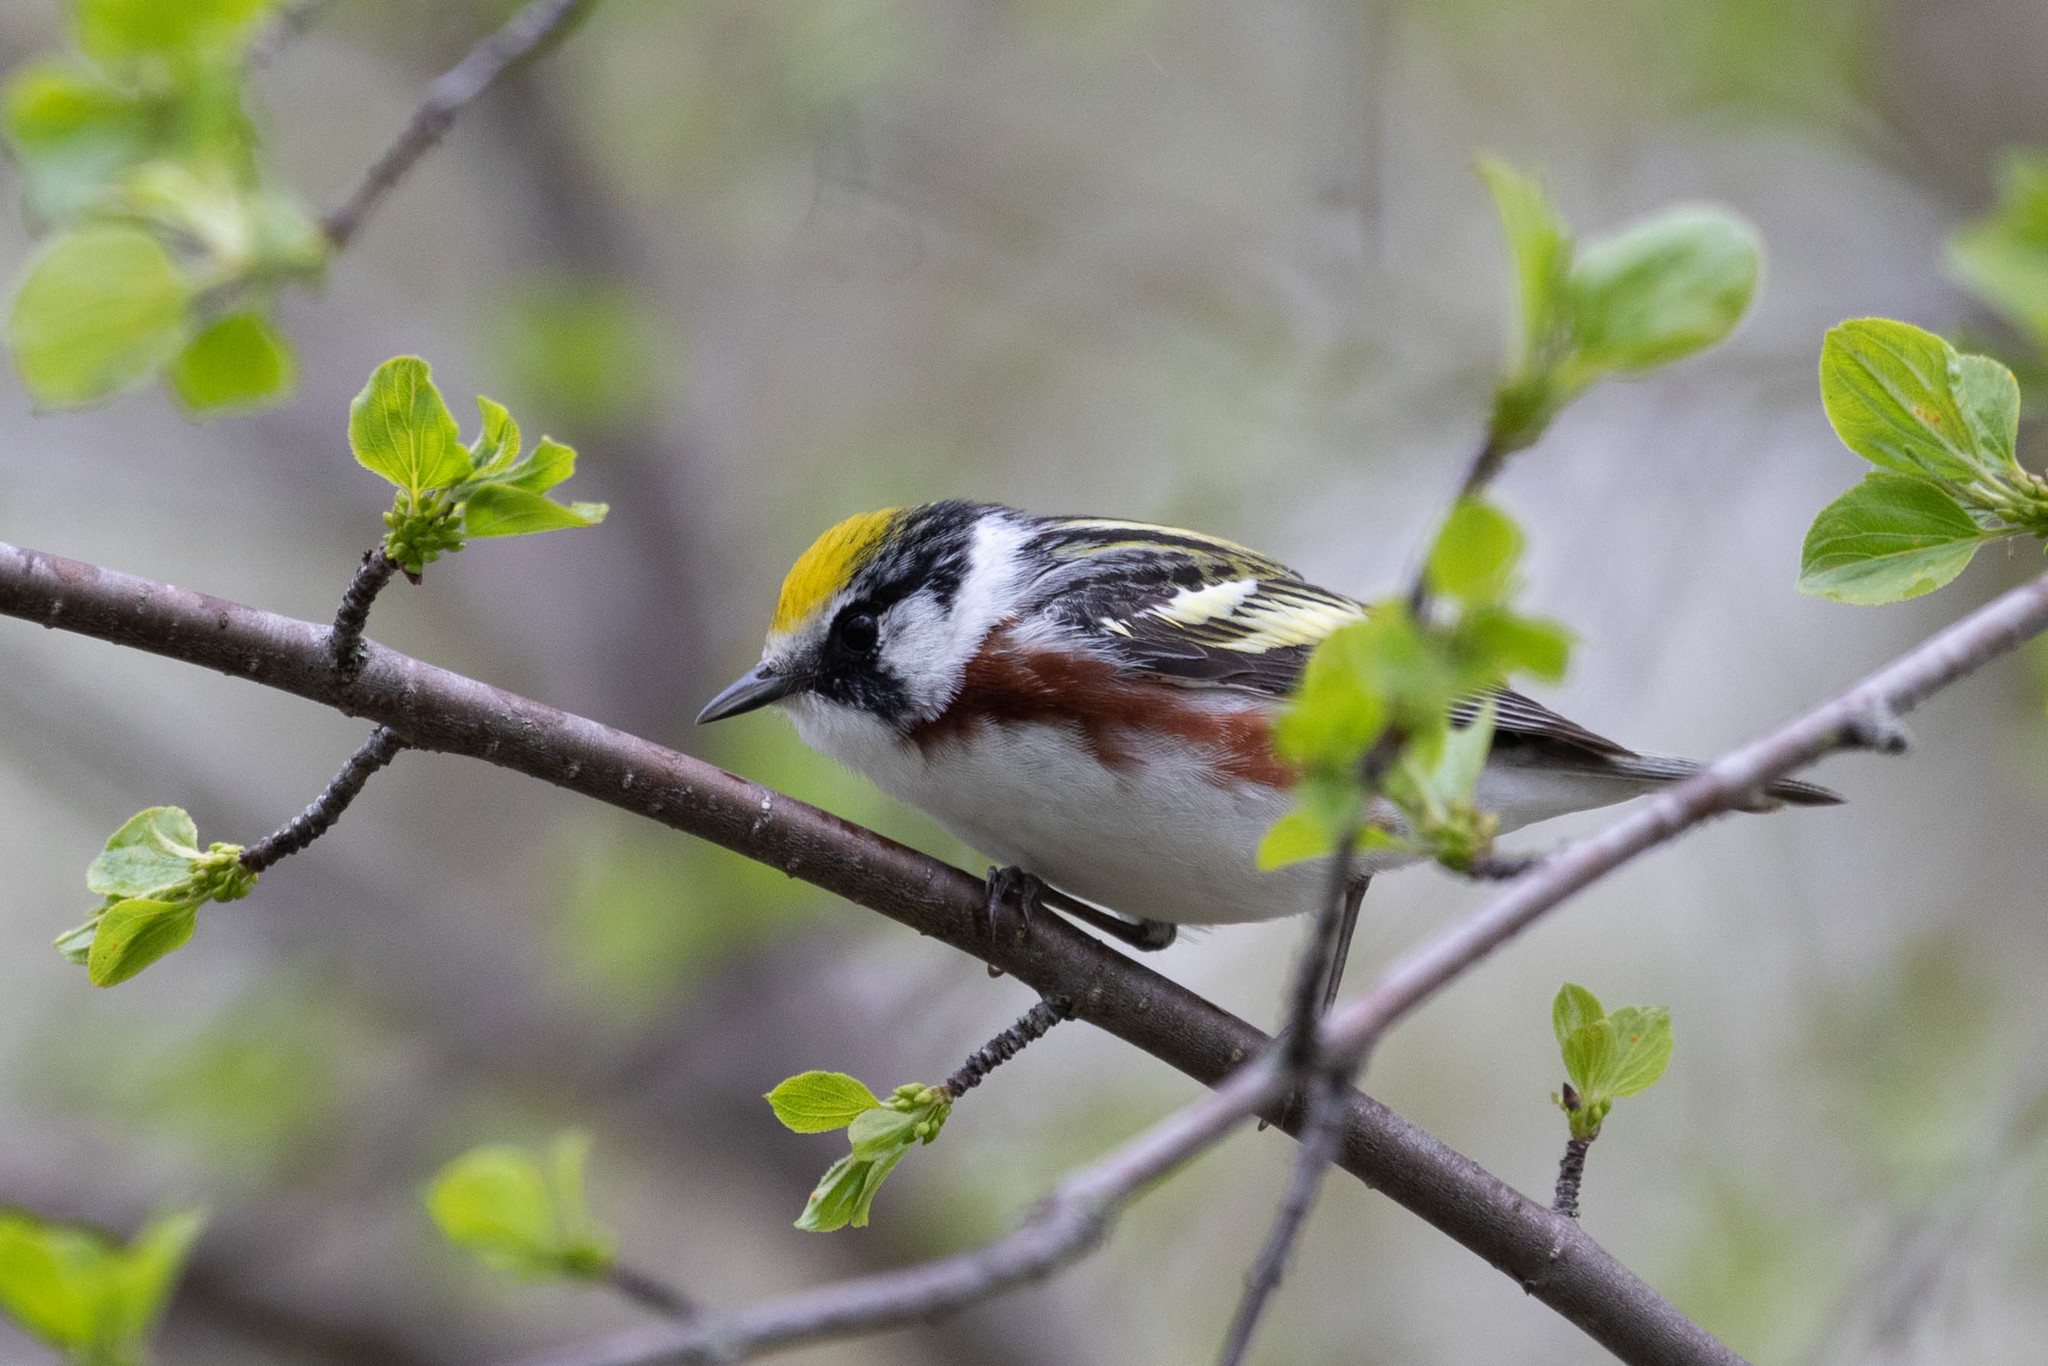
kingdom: Animalia
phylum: Chordata
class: Aves
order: Passeriformes
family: Parulidae
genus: Setophaga
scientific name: Setophaga pensylvanica
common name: Chestnut-sided warbler
